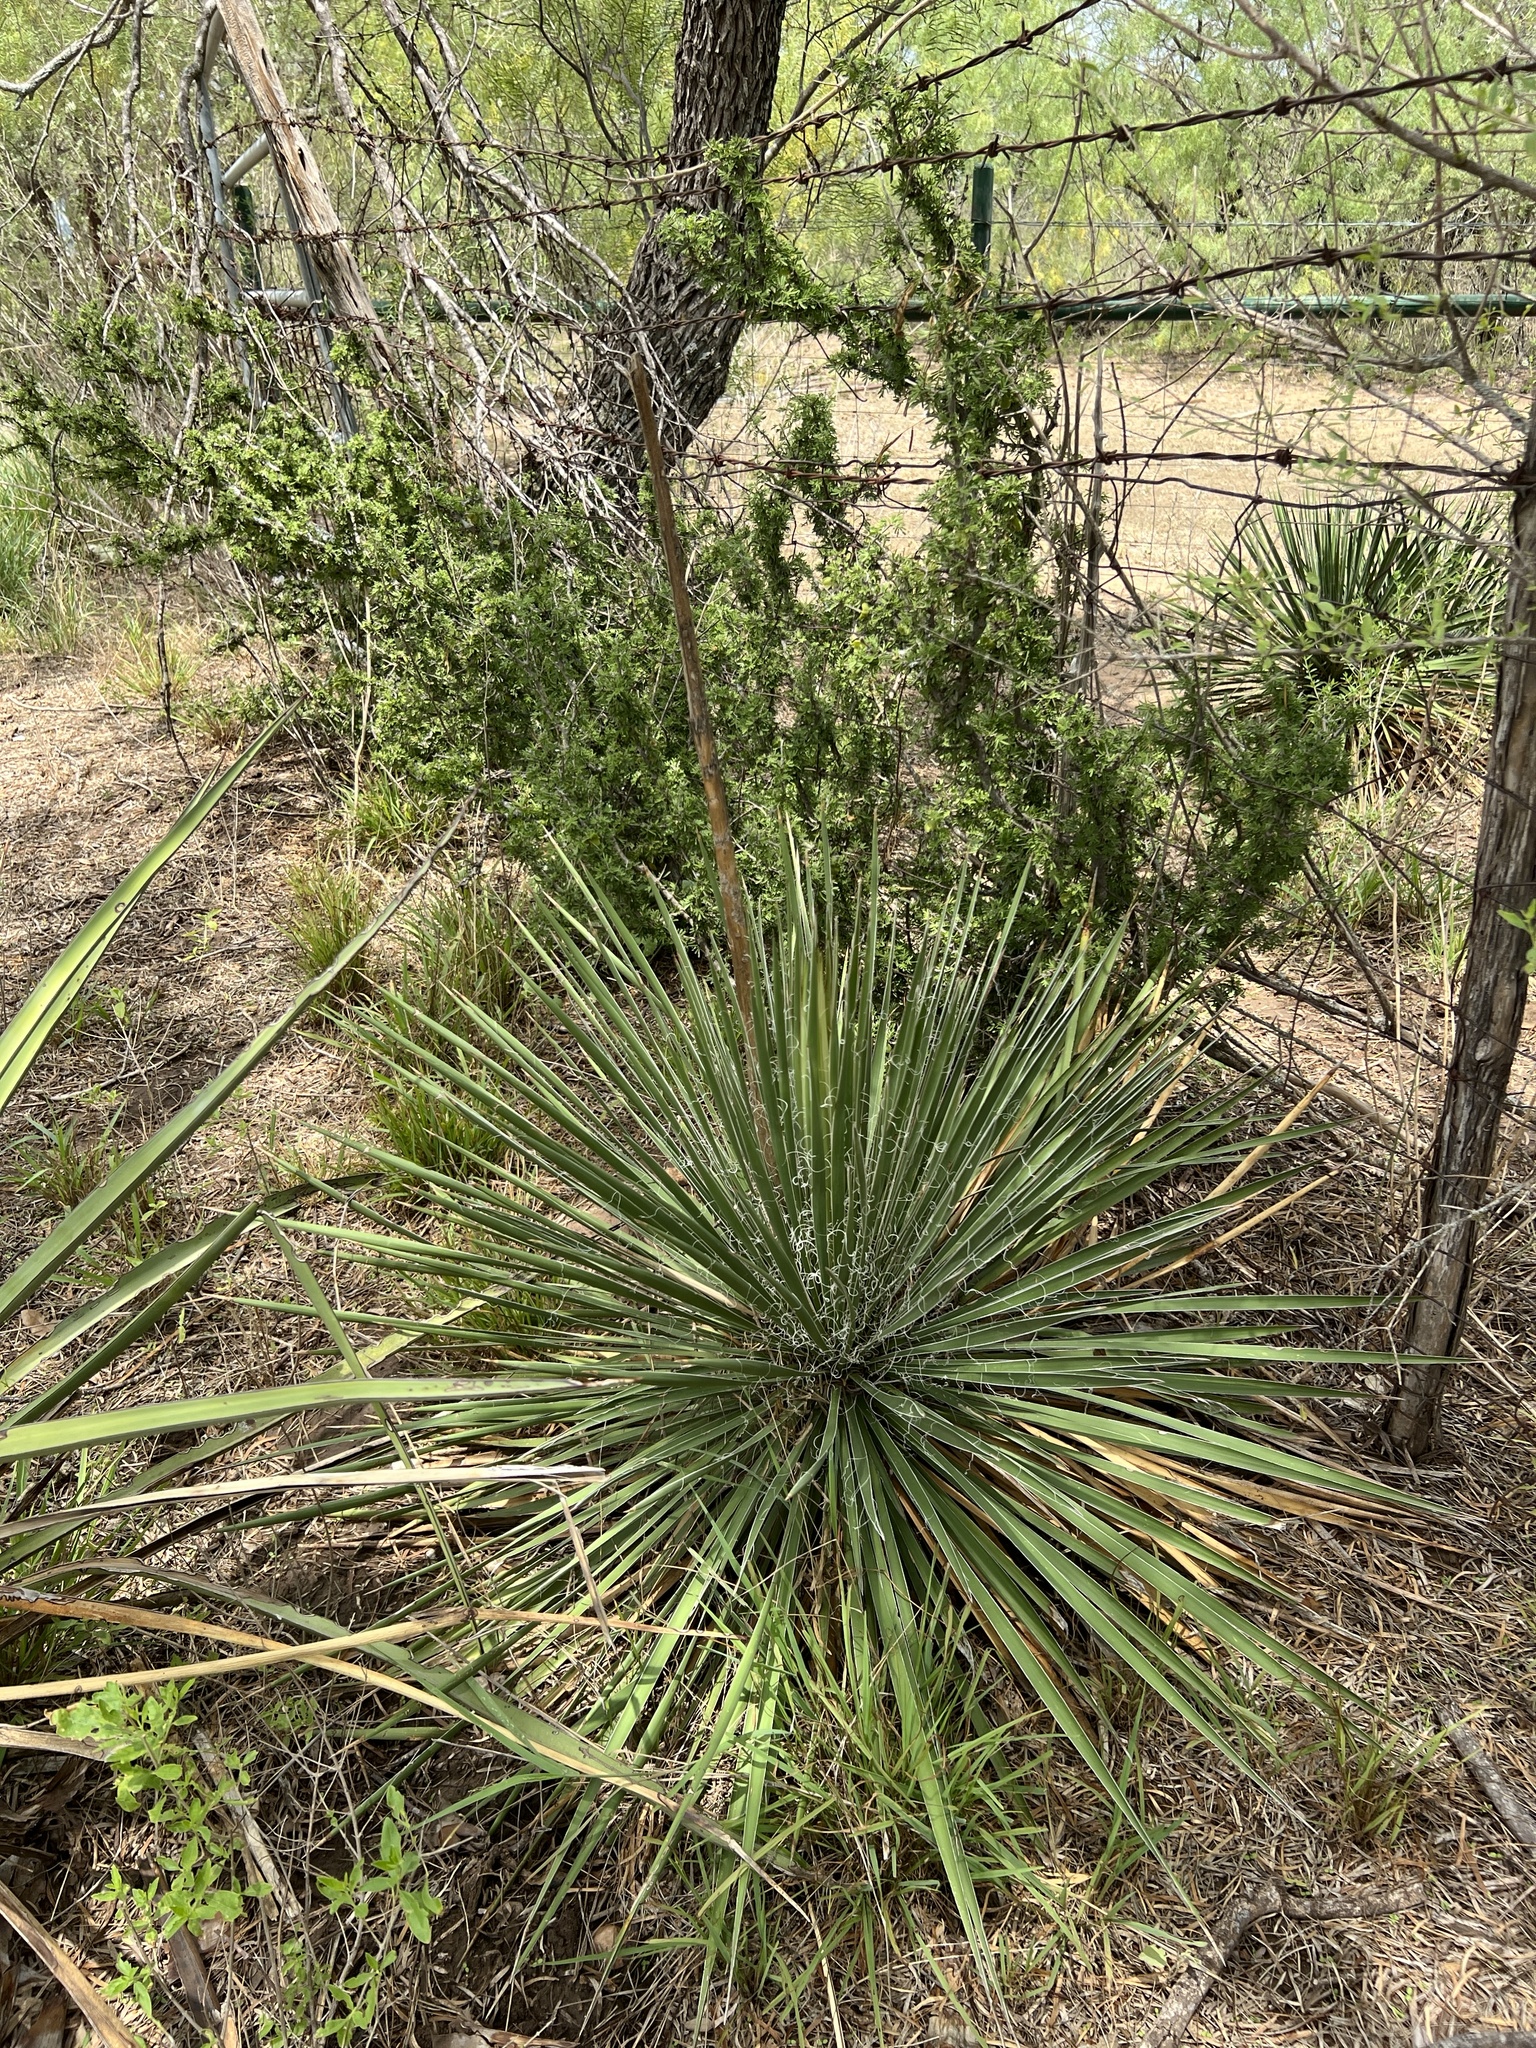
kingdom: Plantae
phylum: Tracheophyta
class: Liliopsida
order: Asparagales
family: Asparagaceae
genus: Yucca
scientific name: Yucca constricta
